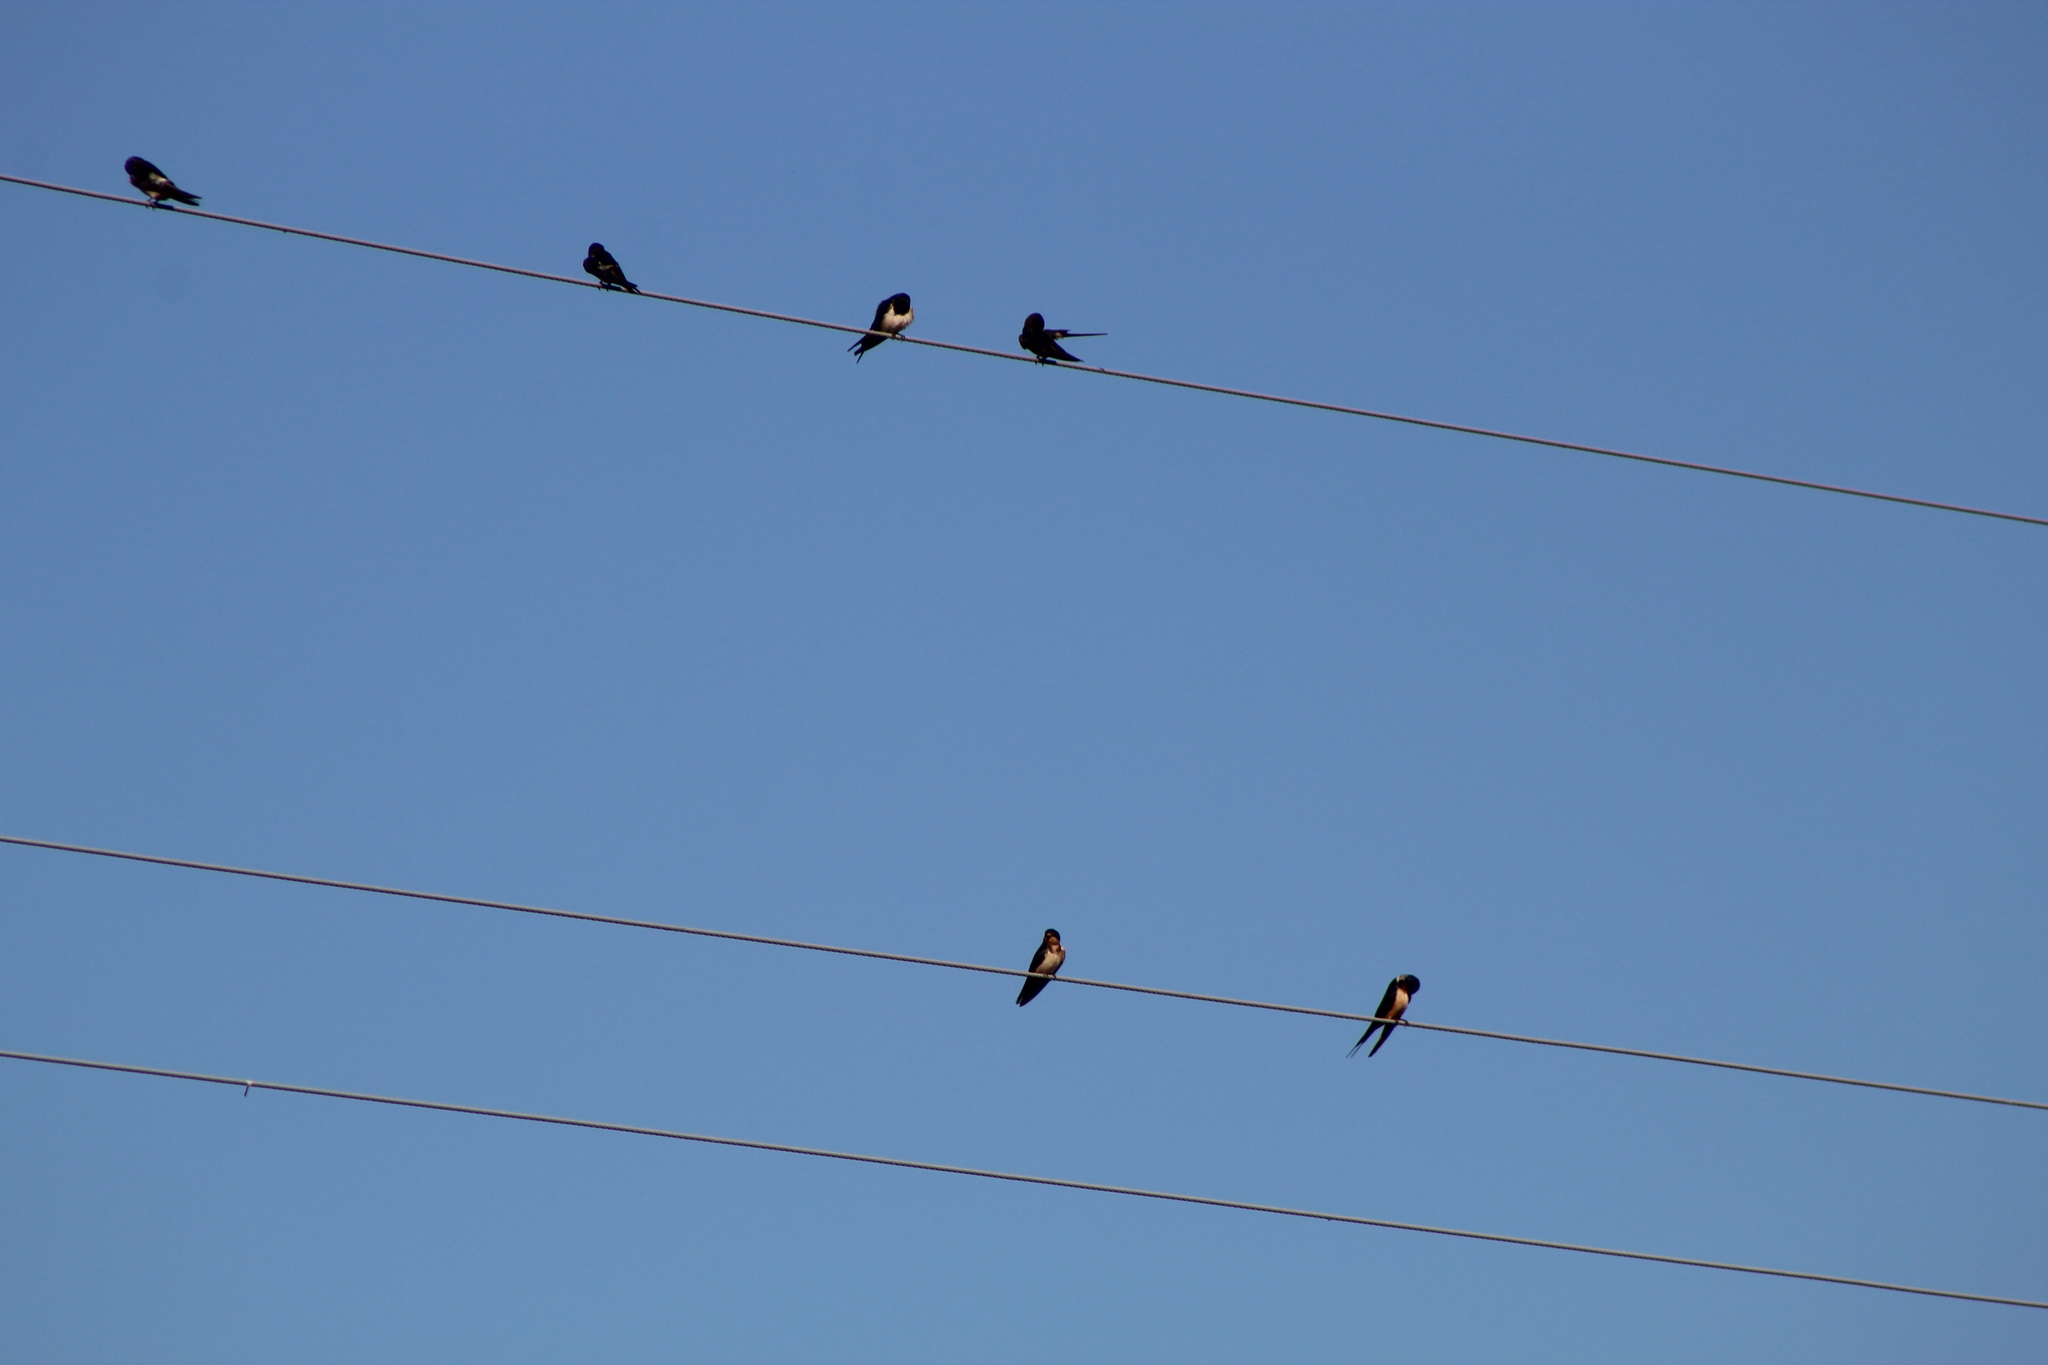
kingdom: Animalia
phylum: Chordata
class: Aves
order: Passeriformes
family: Hirundinidae
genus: Hirundo
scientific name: Hirundo rustica
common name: Barn swallow
